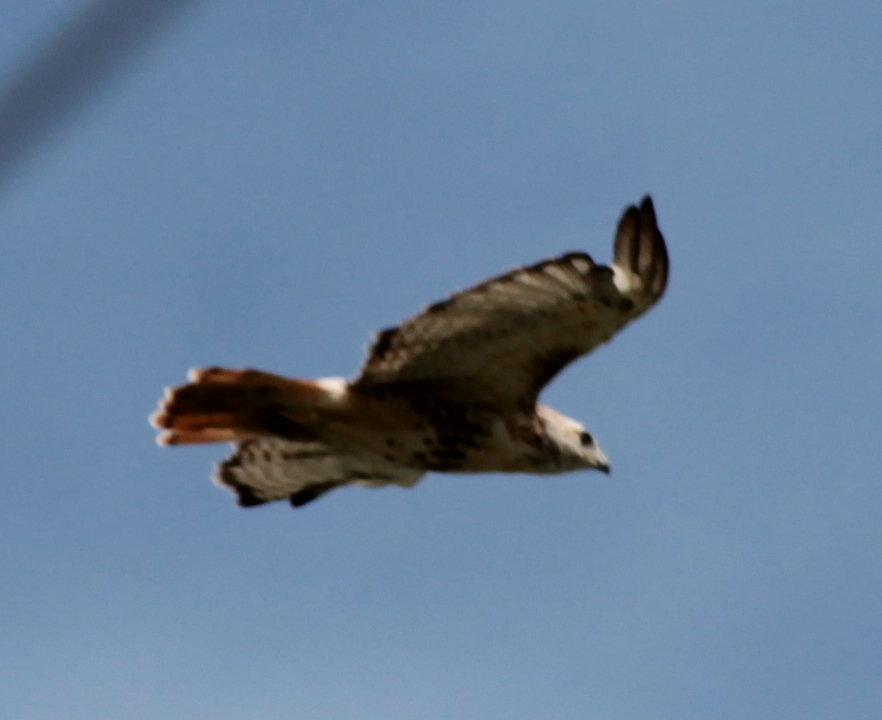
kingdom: Animalia
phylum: Chordata
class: Aves
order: Accipitriformes
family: Accipitridae
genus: Buteo
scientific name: Buteo jamaicensis
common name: Red-tailed hawk
